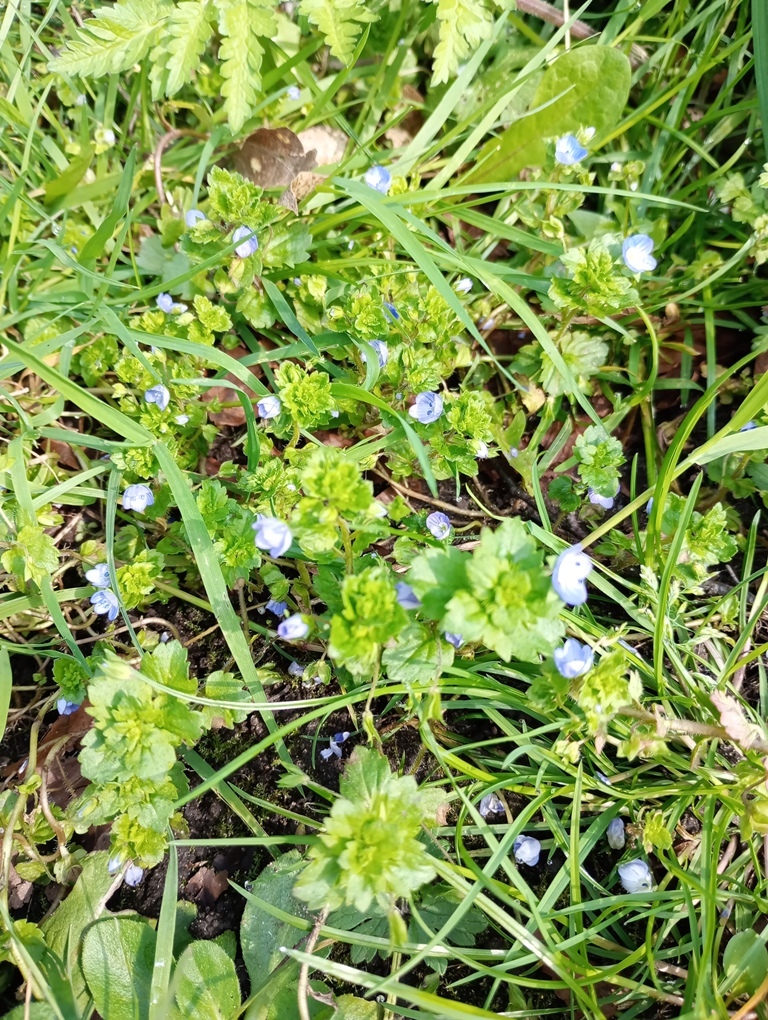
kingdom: Plantae
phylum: Tracheophyta
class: Magnoliopsida
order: Lamiales
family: Plantaginaceae
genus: Veronica
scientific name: Veronica persica
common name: Common field-speedwell
